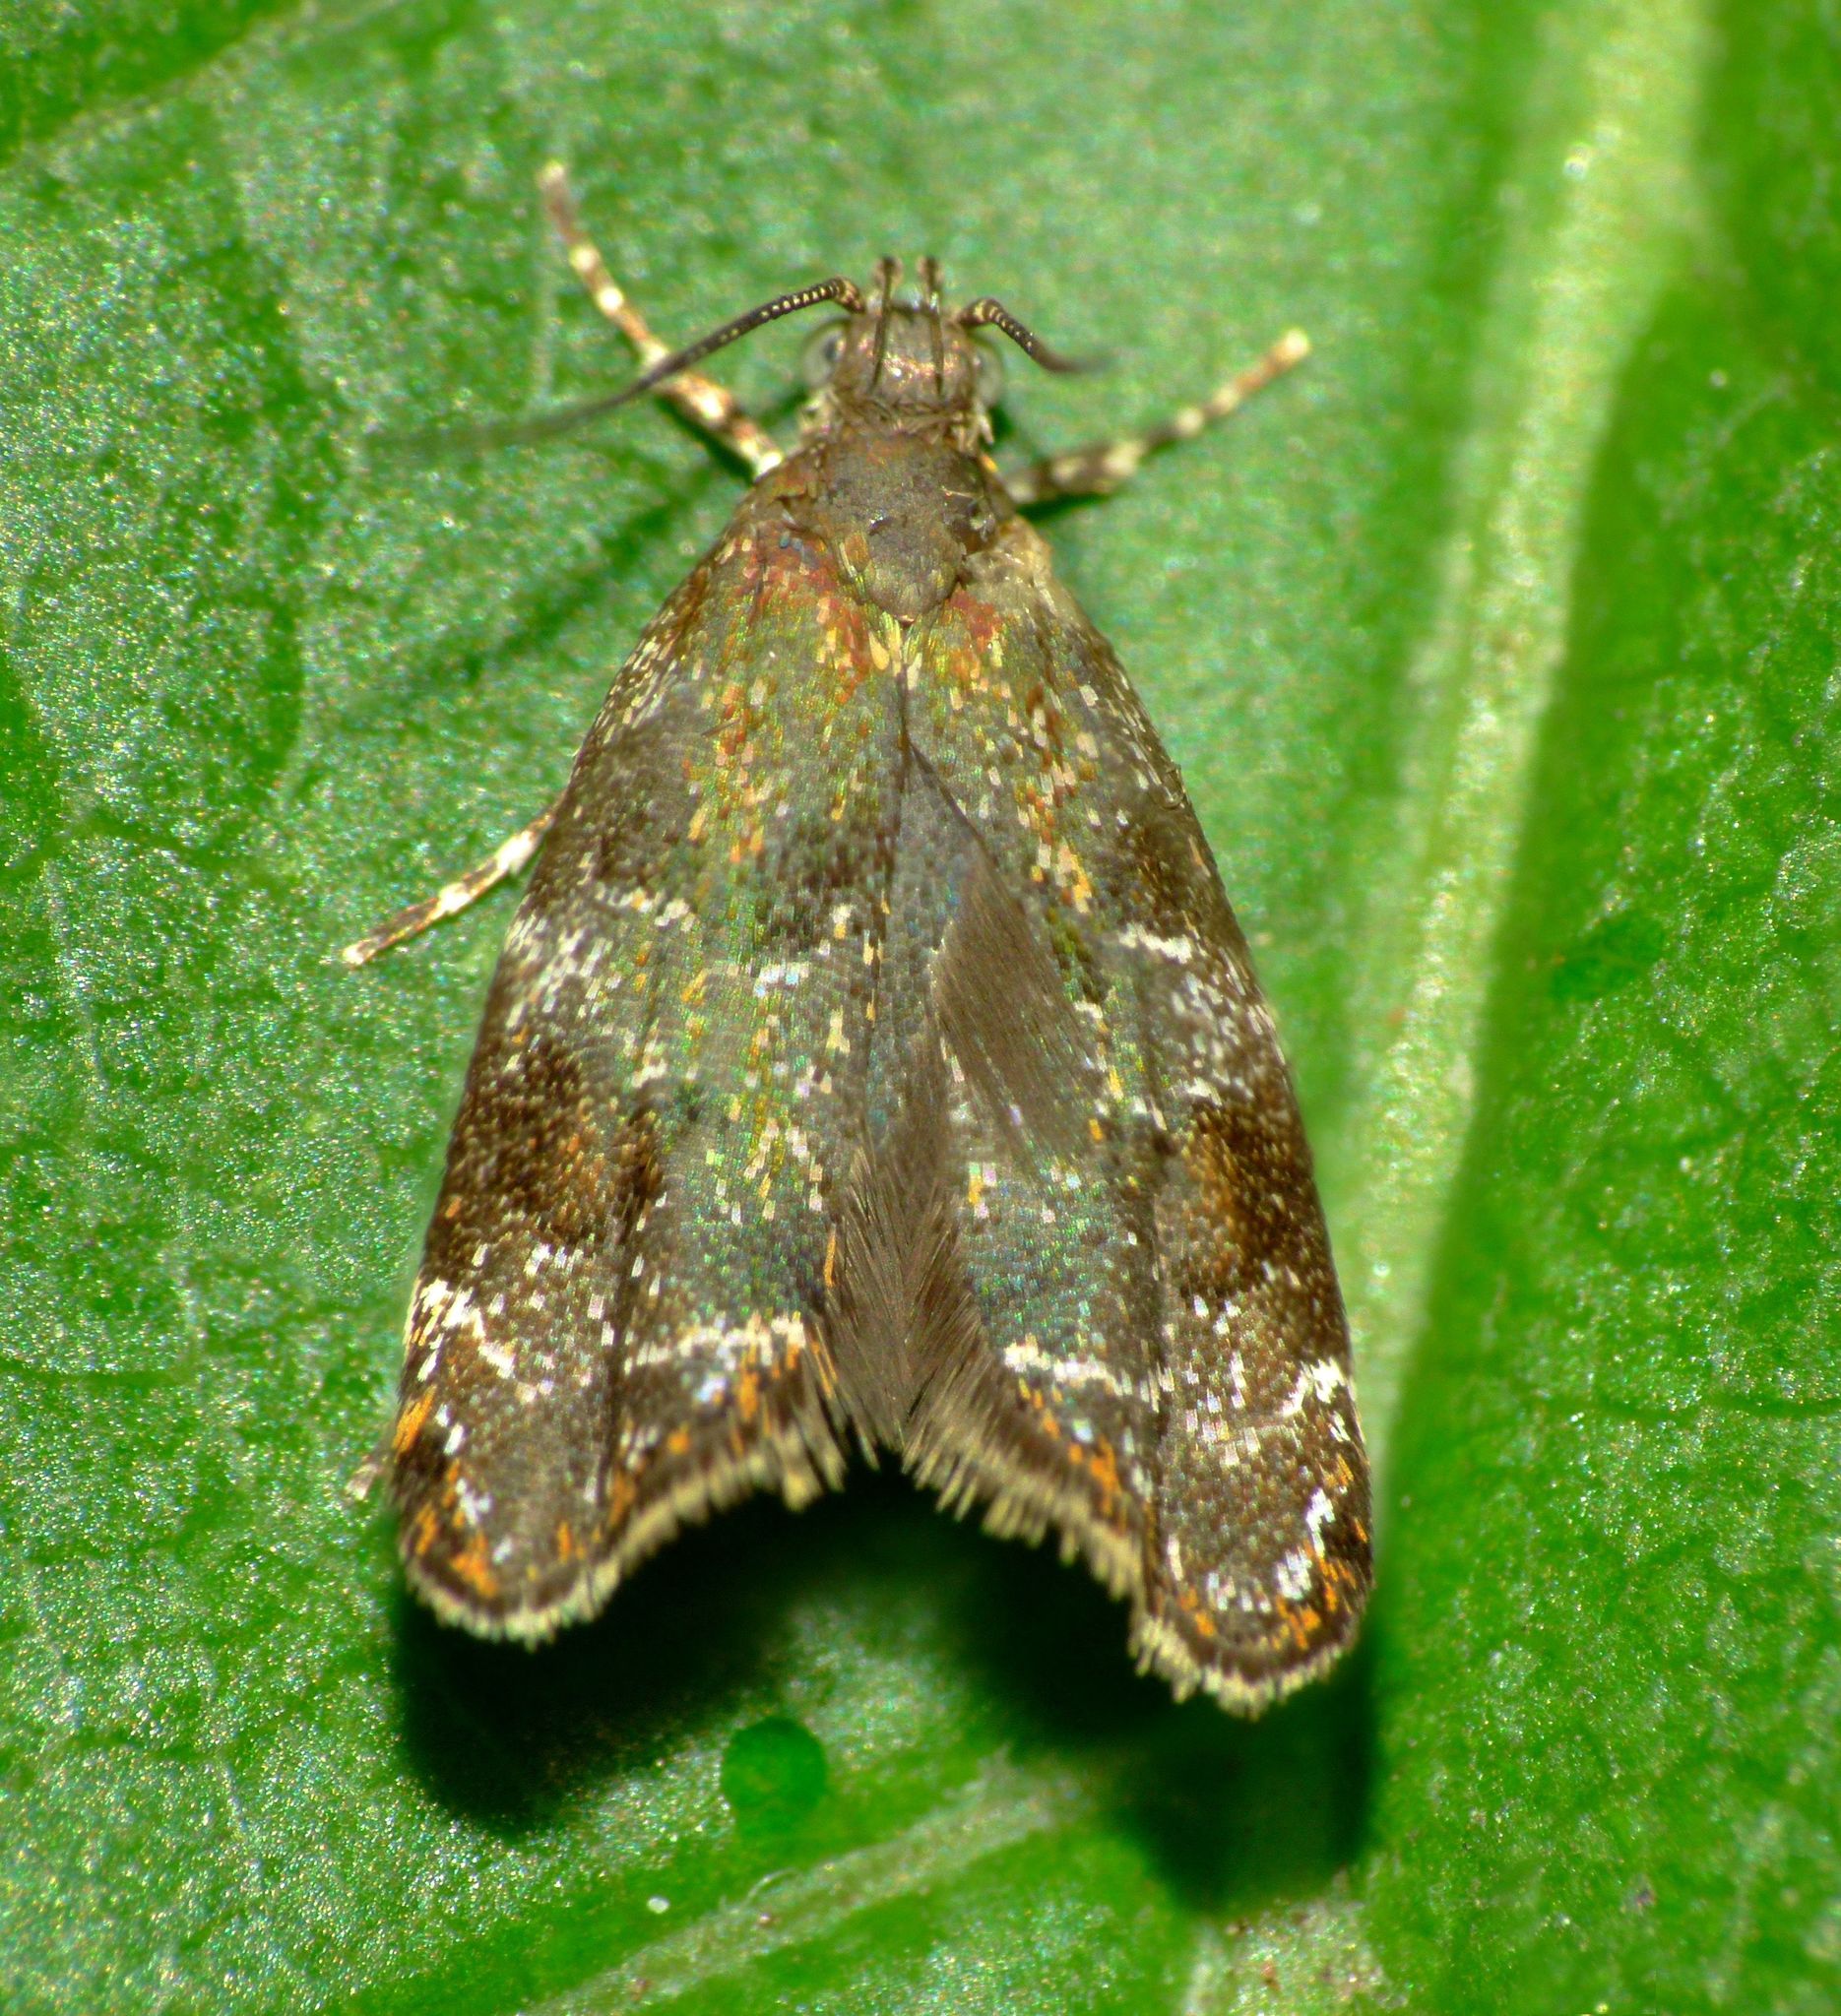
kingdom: Animalia
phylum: Arthropoda
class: Insecta
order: Lepidoptera
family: Oecophoridae
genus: Gymnobathra
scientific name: Gymnobathra omphalota
